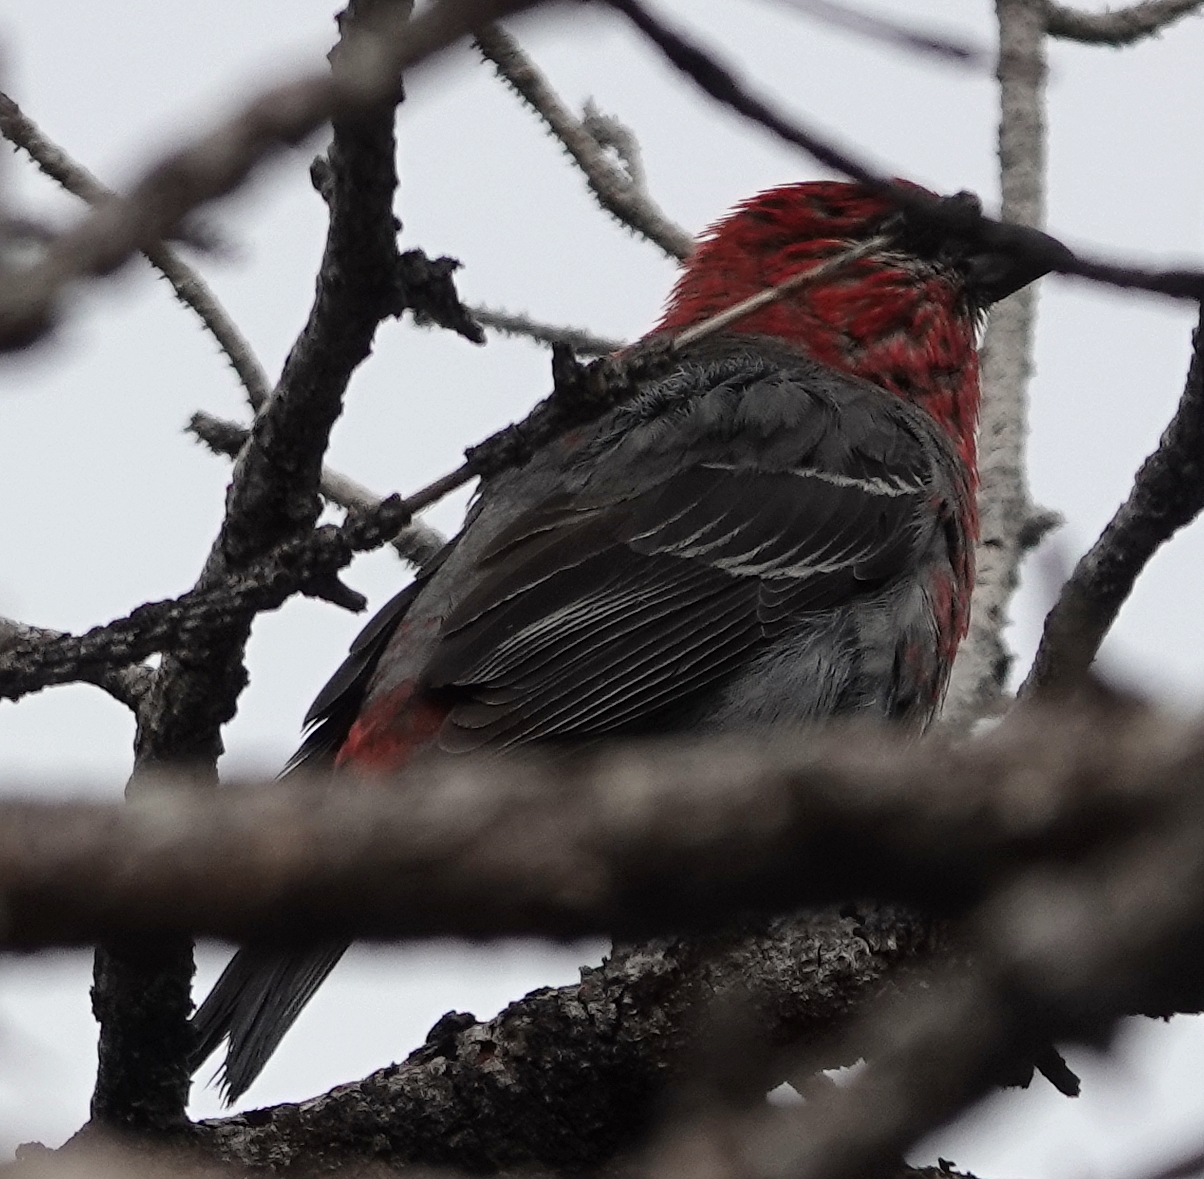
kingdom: Animalia
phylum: Chordata
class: Aves
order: Passeriformes
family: Fringillidae
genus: Pinicola
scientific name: Pinicola enucleator
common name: Pine grosbeak
